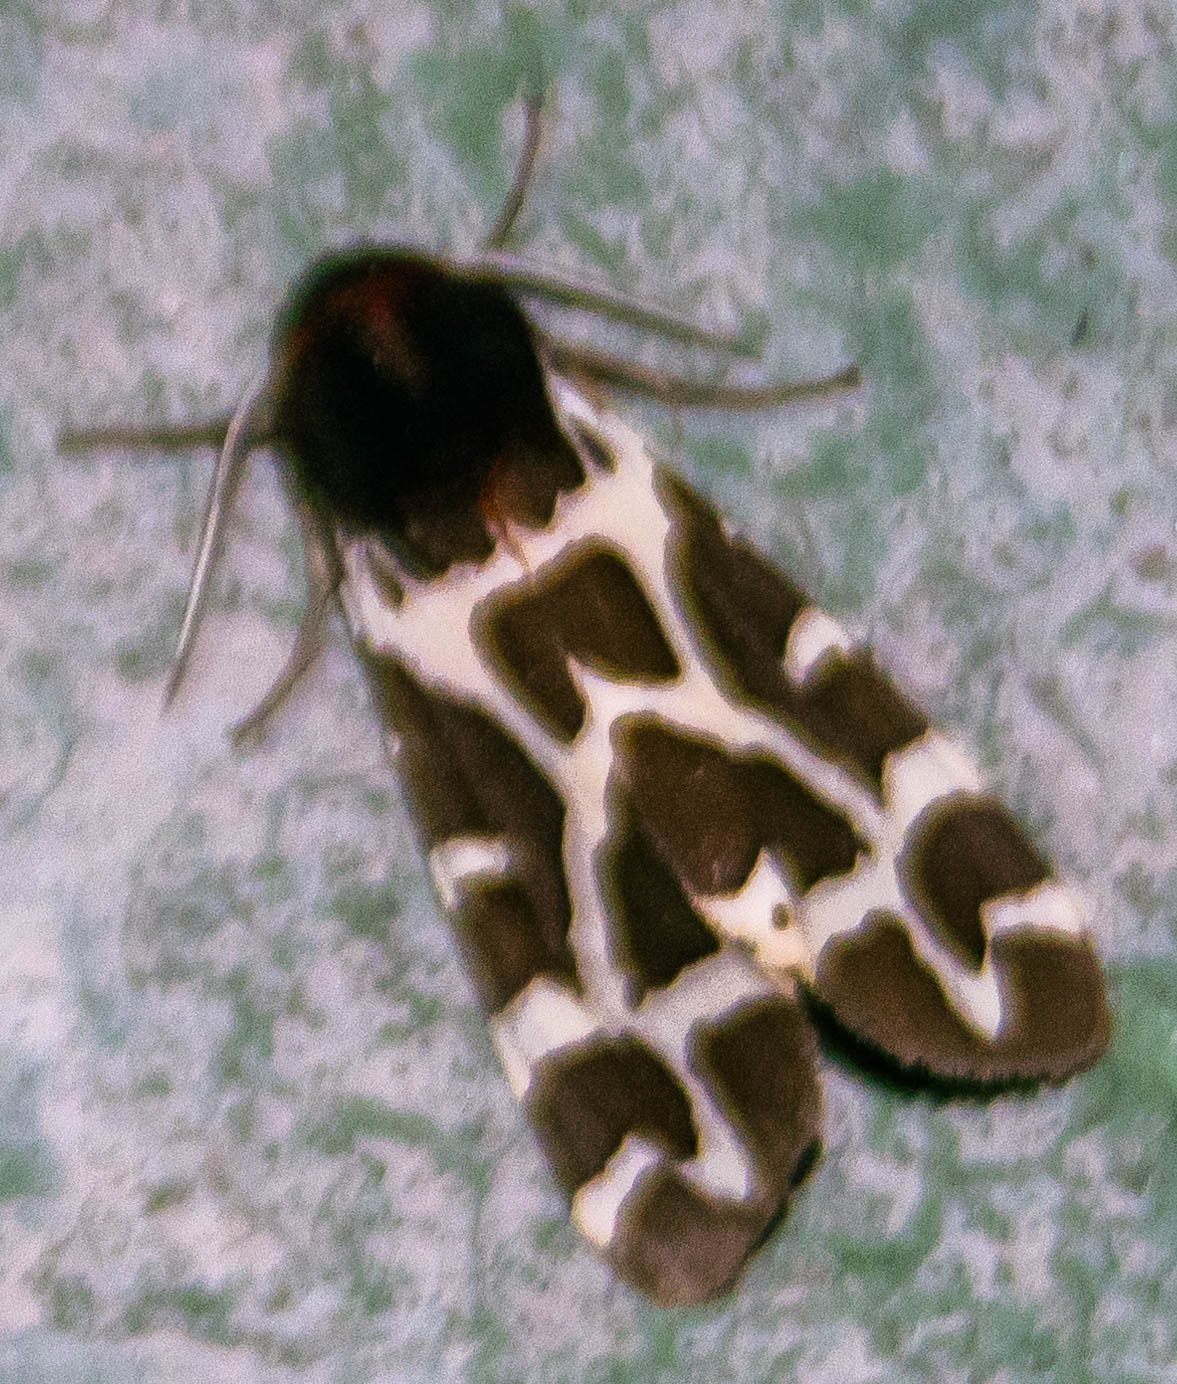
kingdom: Animalia
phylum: Arthropoda
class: Insecta
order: Lepidoptera
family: Erebidae
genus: Arctia
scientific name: Arctia caja
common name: Garden tiger
